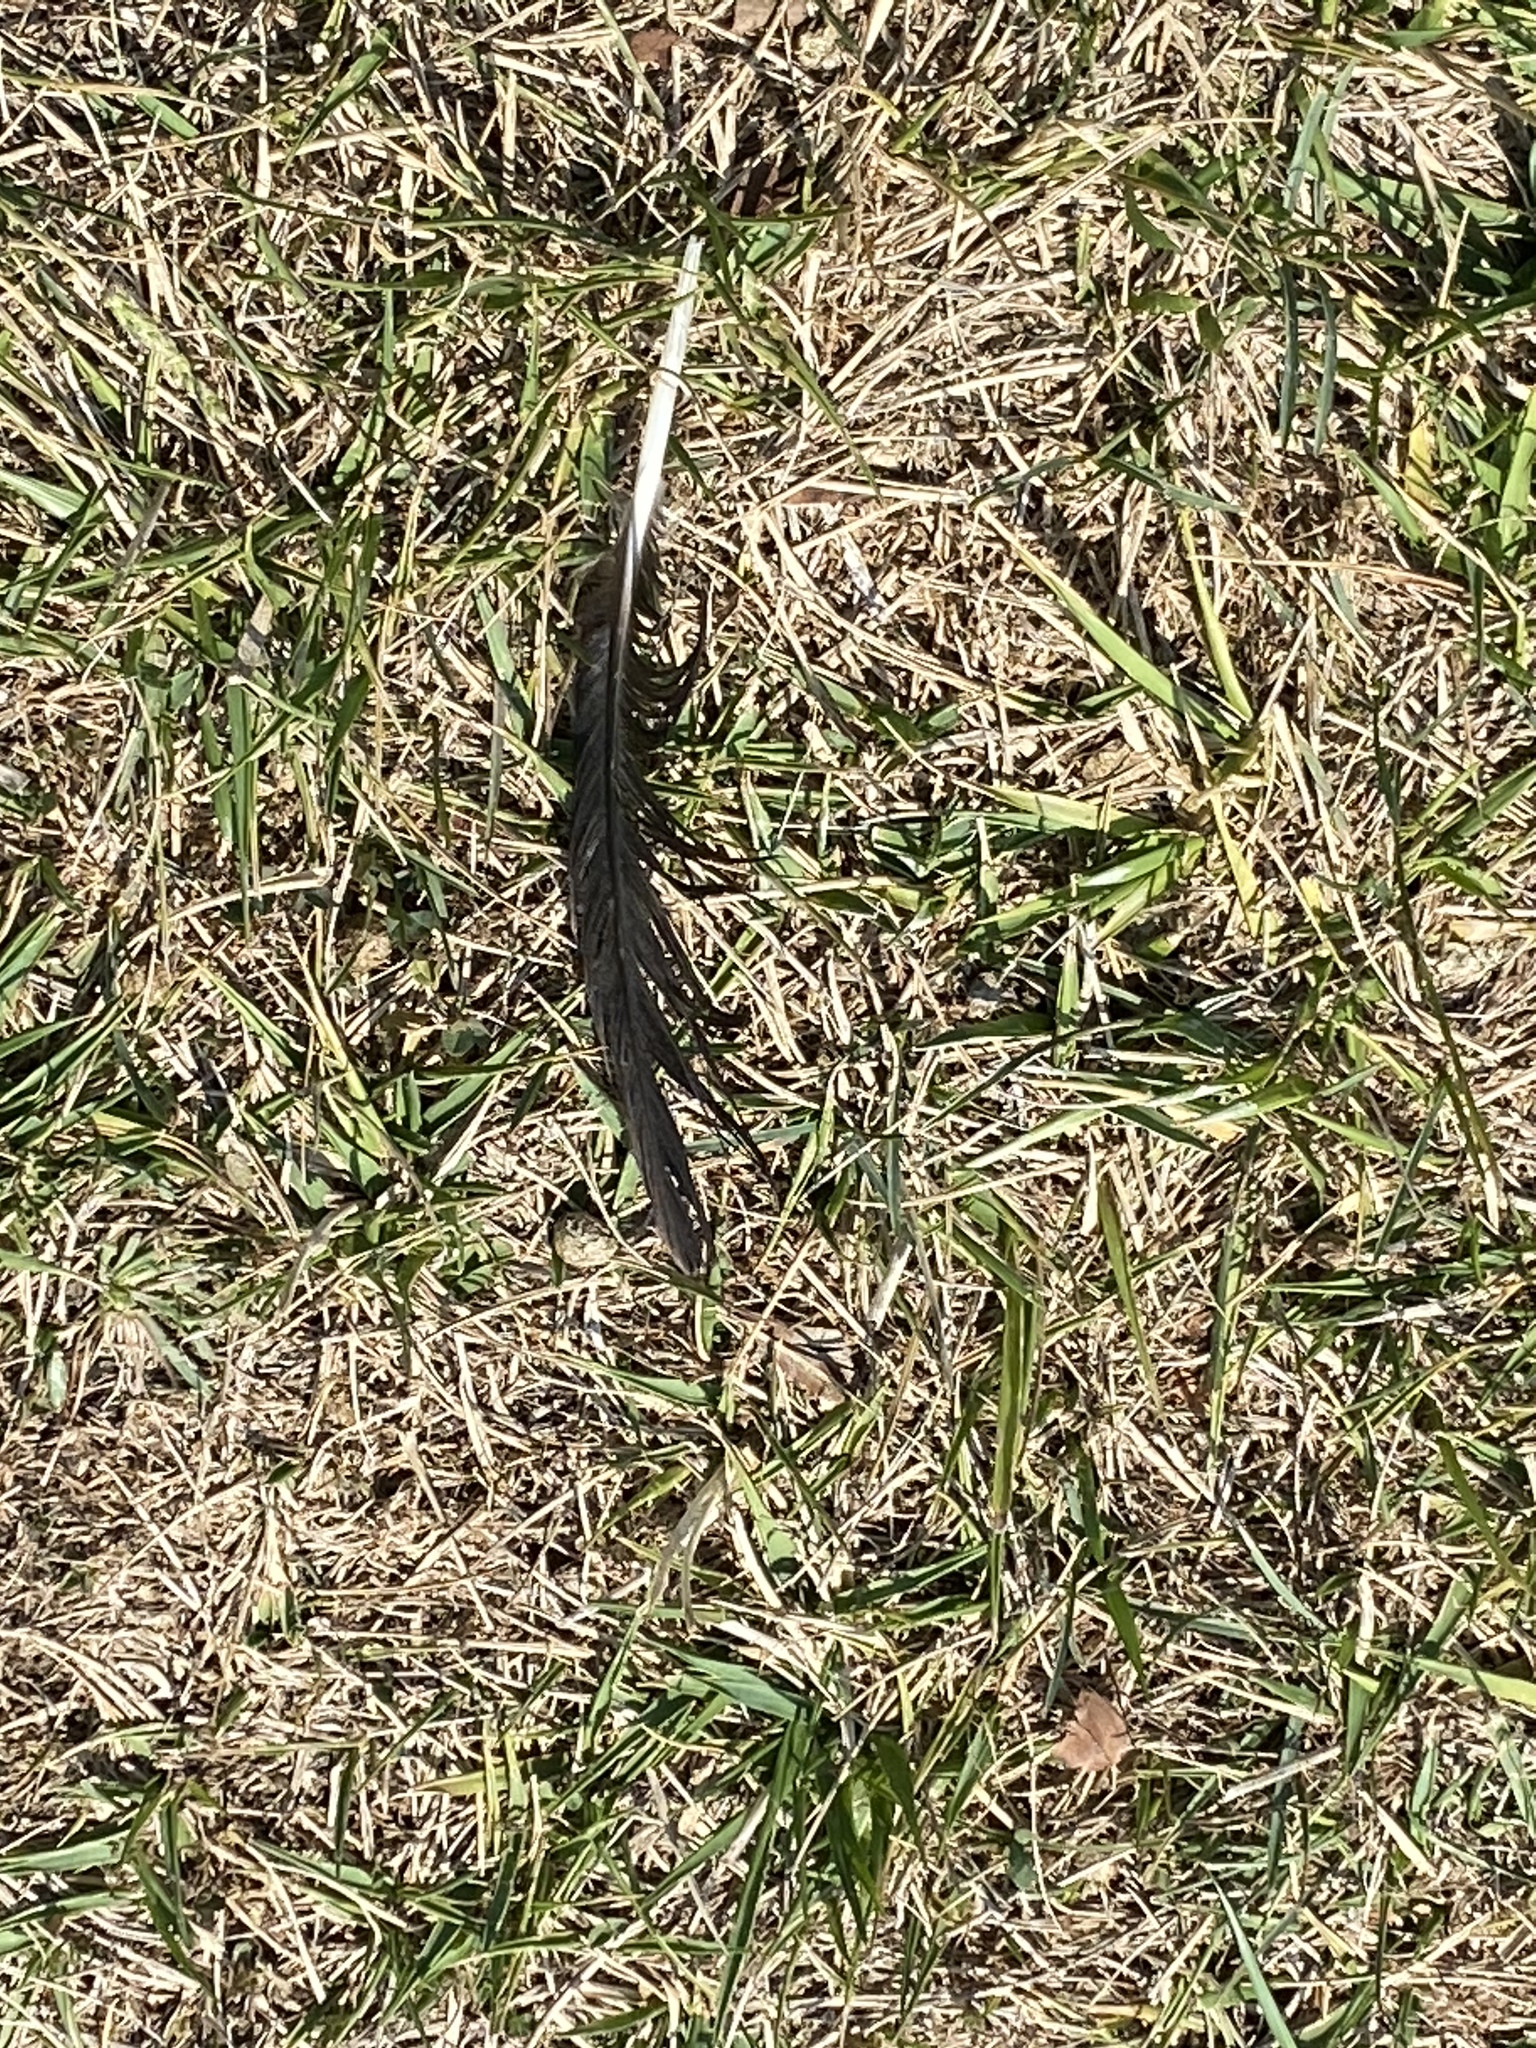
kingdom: Animalia
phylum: Chordata
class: Aves
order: Passeriformes
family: Corvidae
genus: Corvus
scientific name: Corvus brachyrhynchos
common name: American crow
